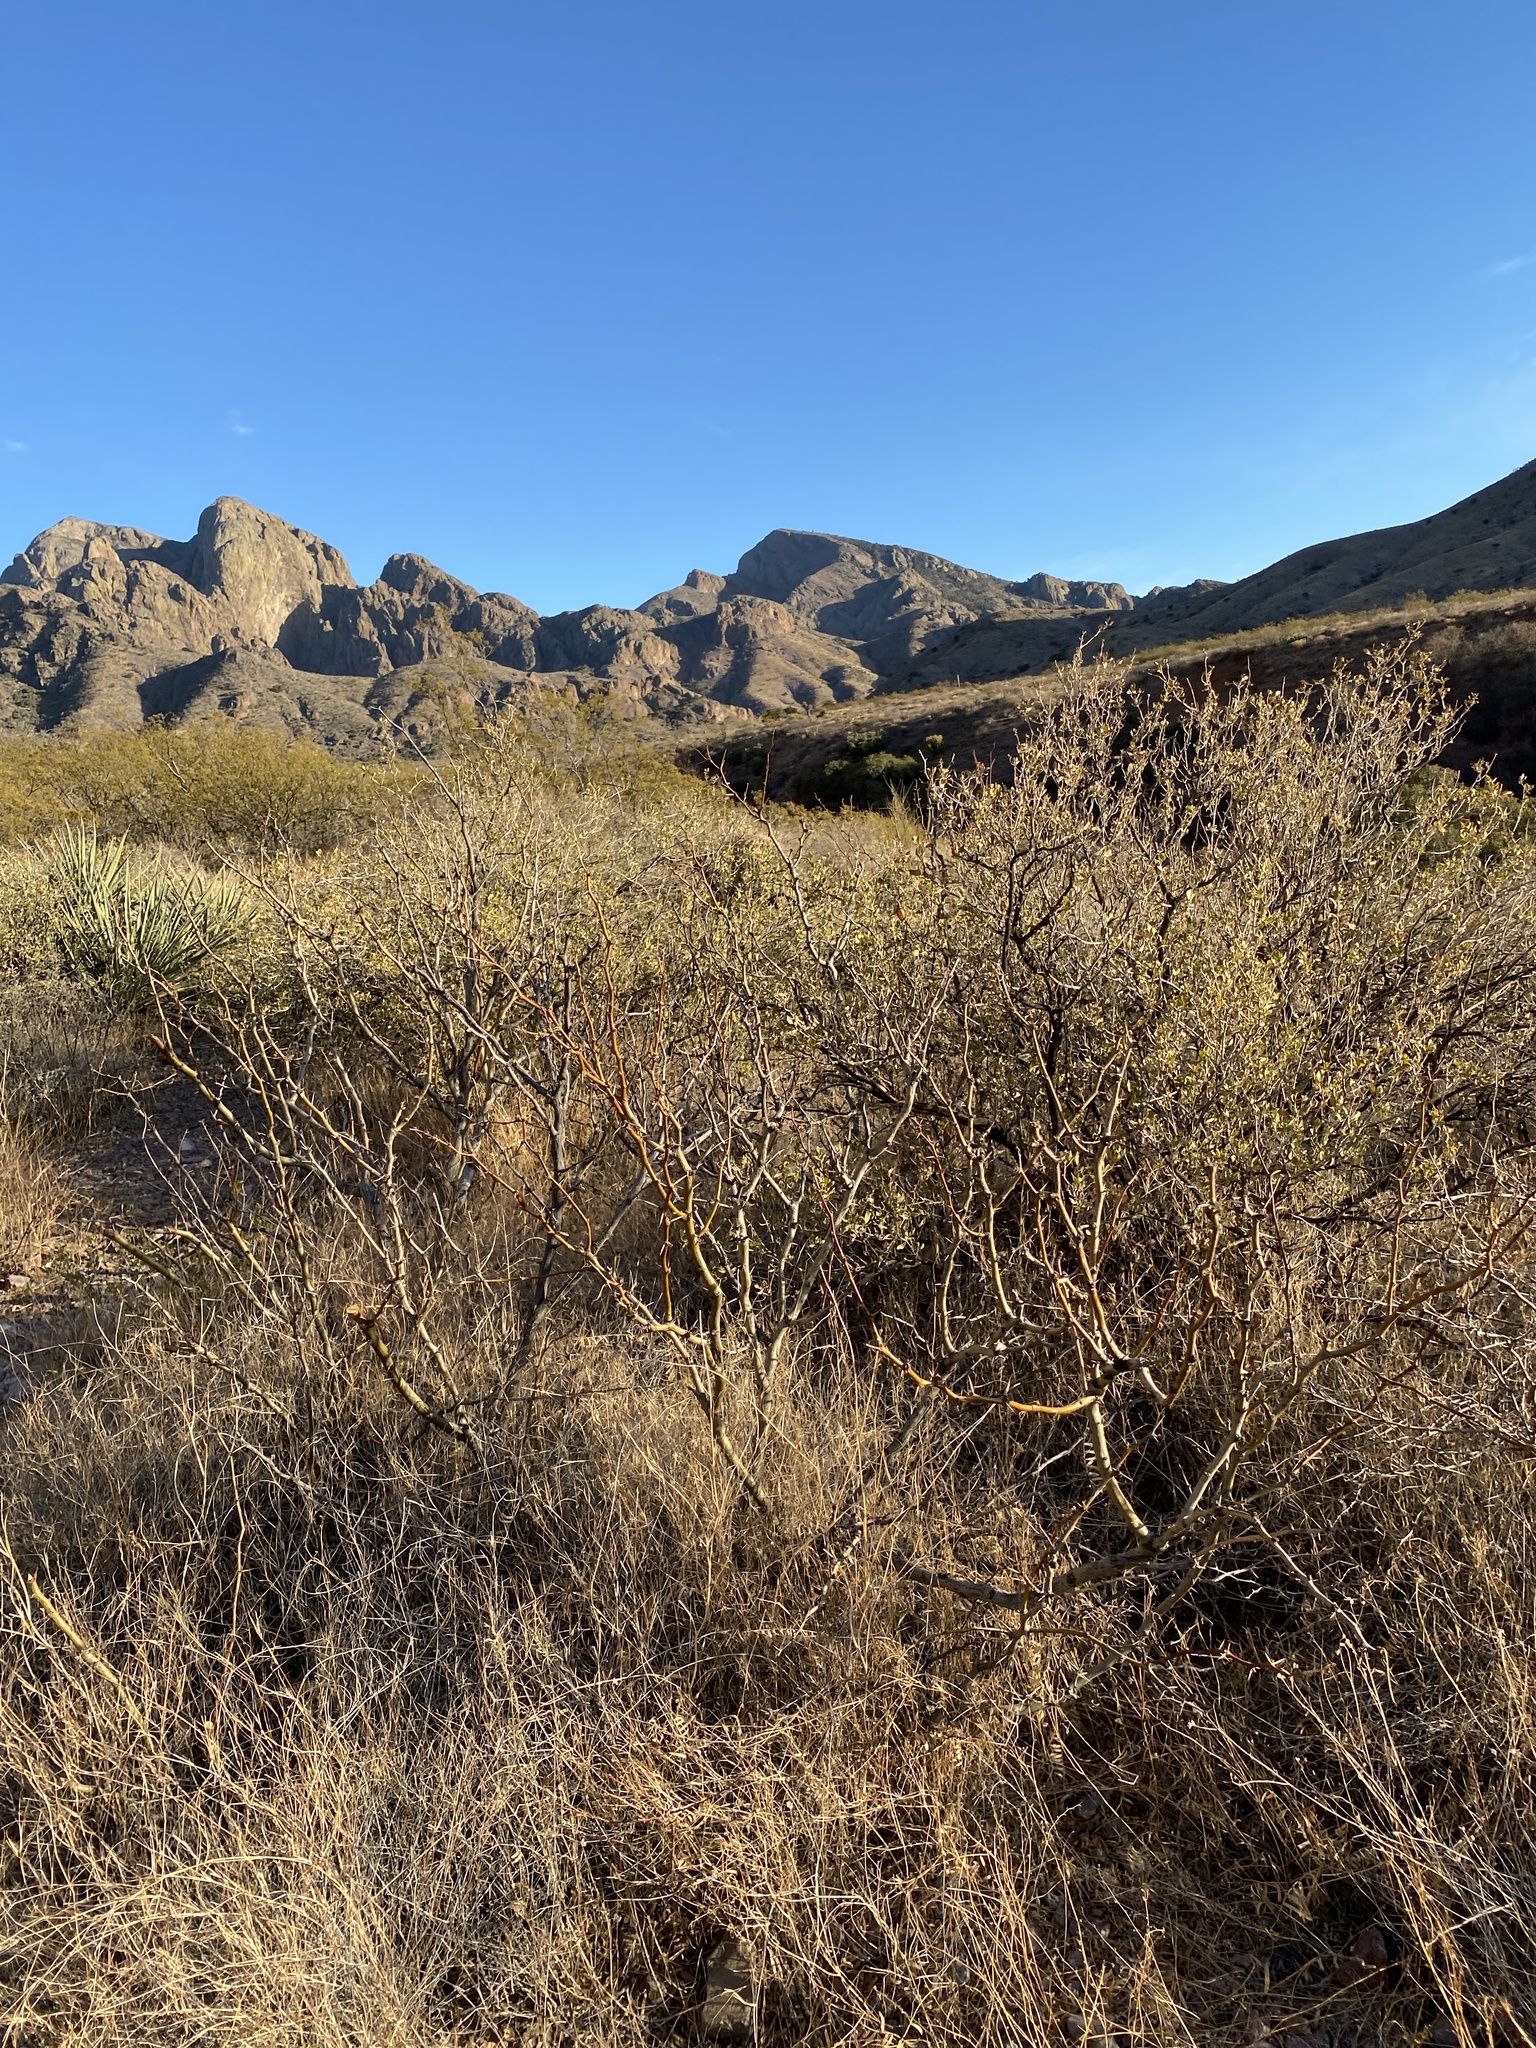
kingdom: Plantae
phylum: Tracheophyta
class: Magnoliopsida
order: Asterales
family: Asteraceae
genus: Flourensia
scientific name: Flourensia cernua
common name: Varnishbush
